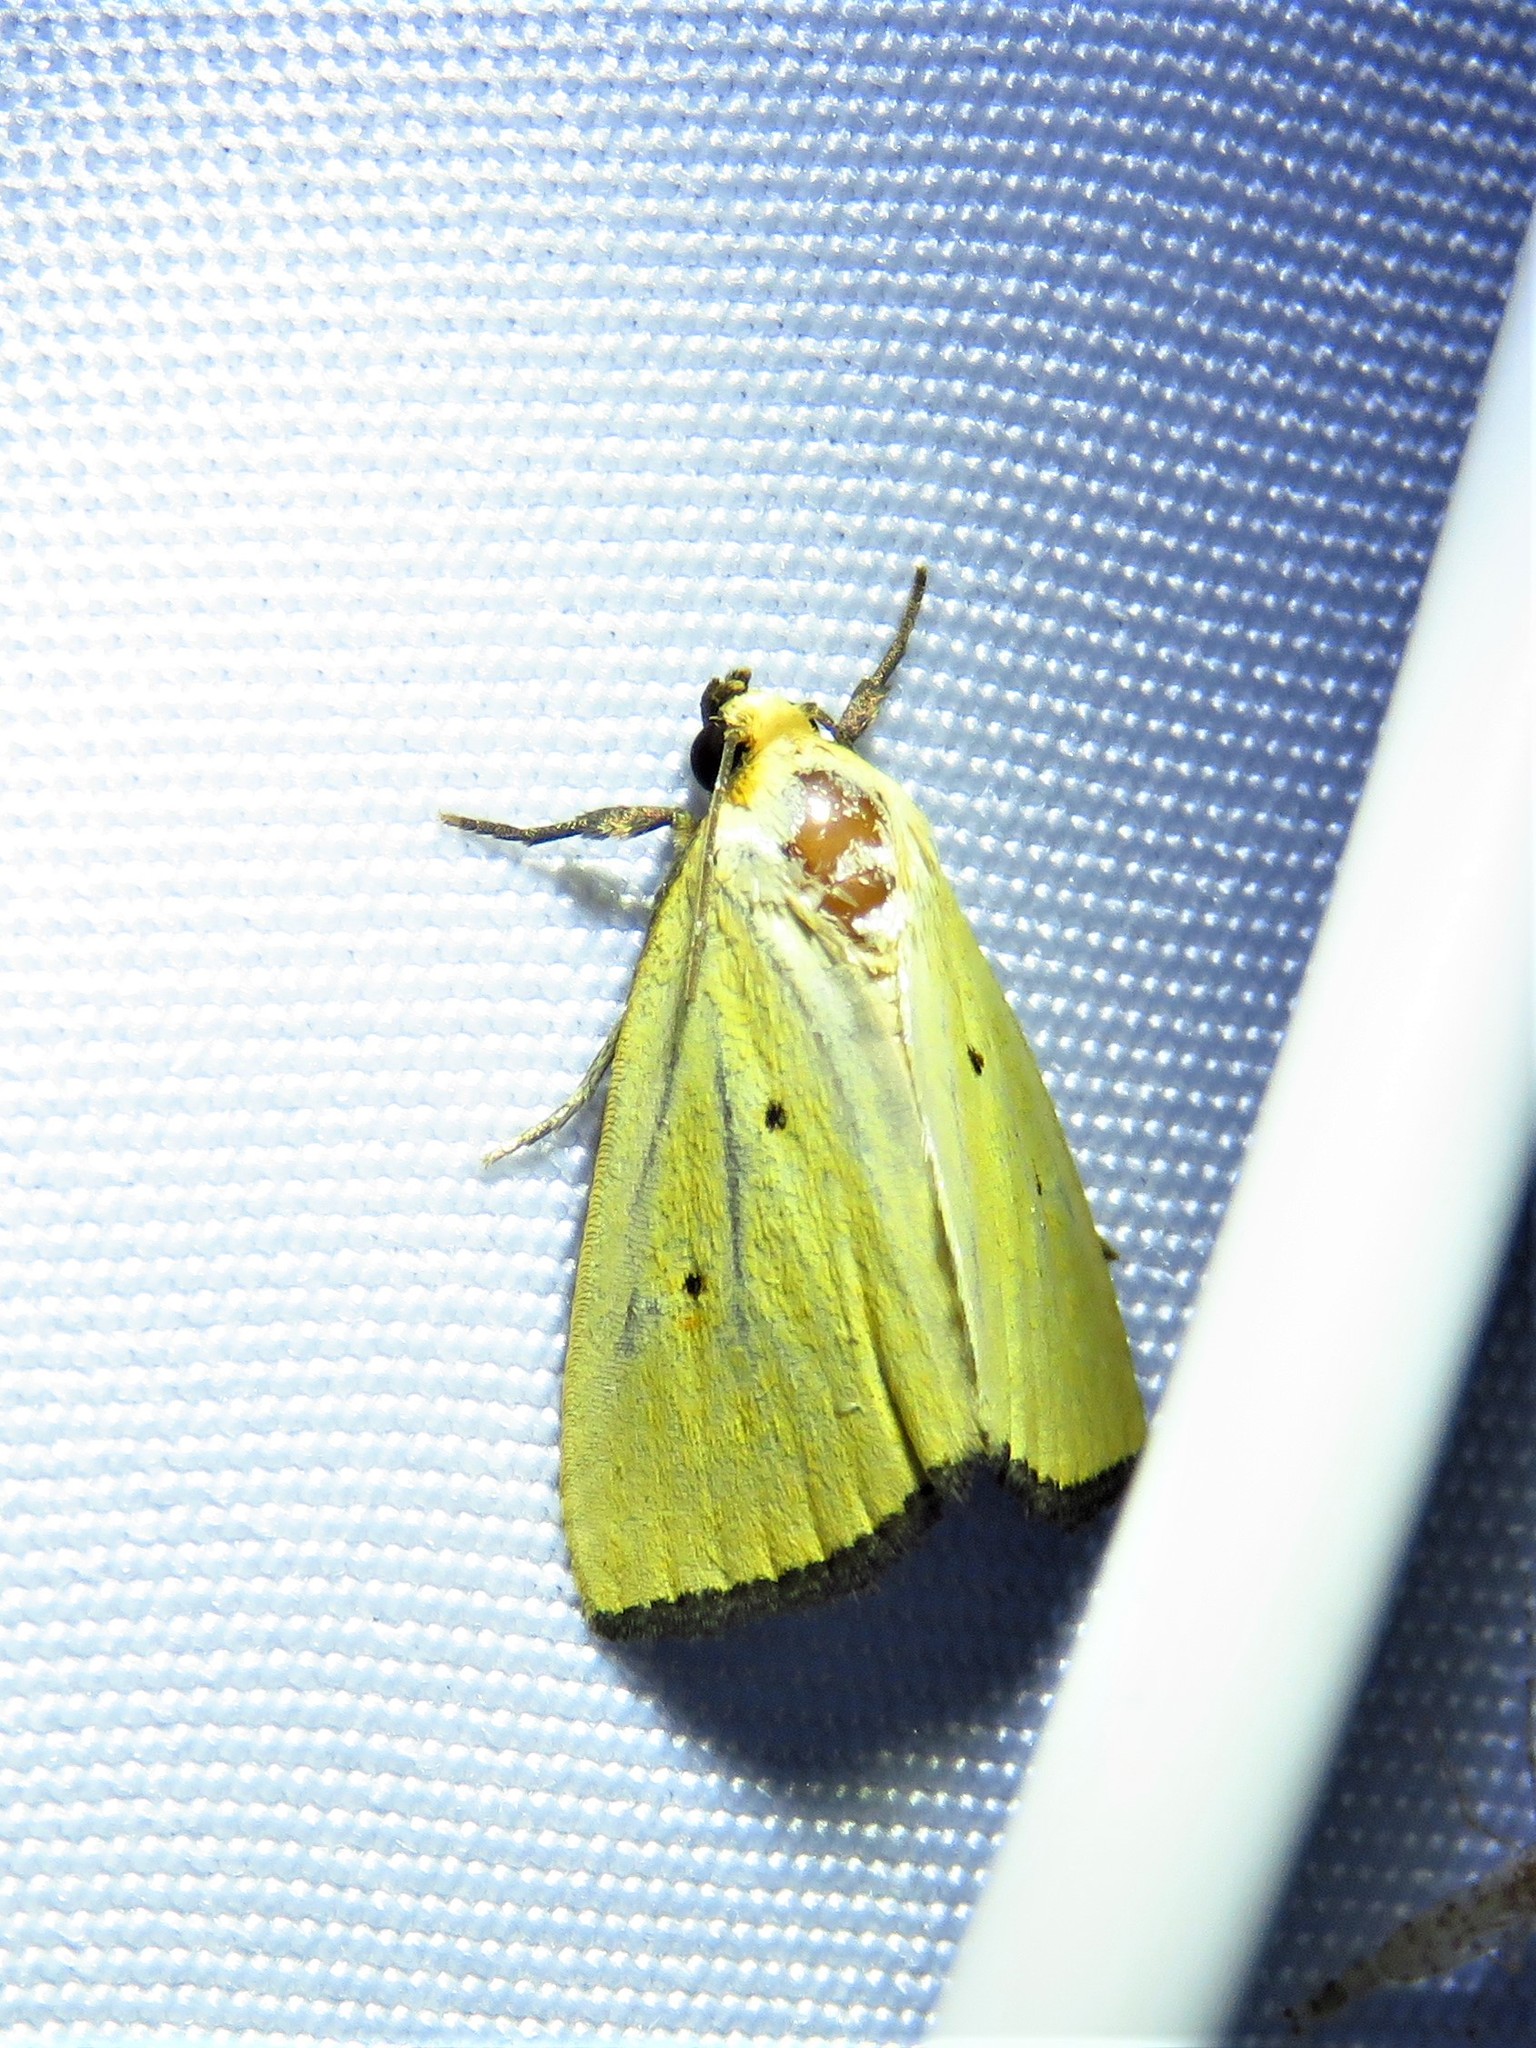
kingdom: Animalia
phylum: Arthropoda
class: Insecta
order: Lepidoptera
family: Noctuidae
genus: Marimatha
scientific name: Marimatha nigrofimbria
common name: Black-bordered lemon moth
